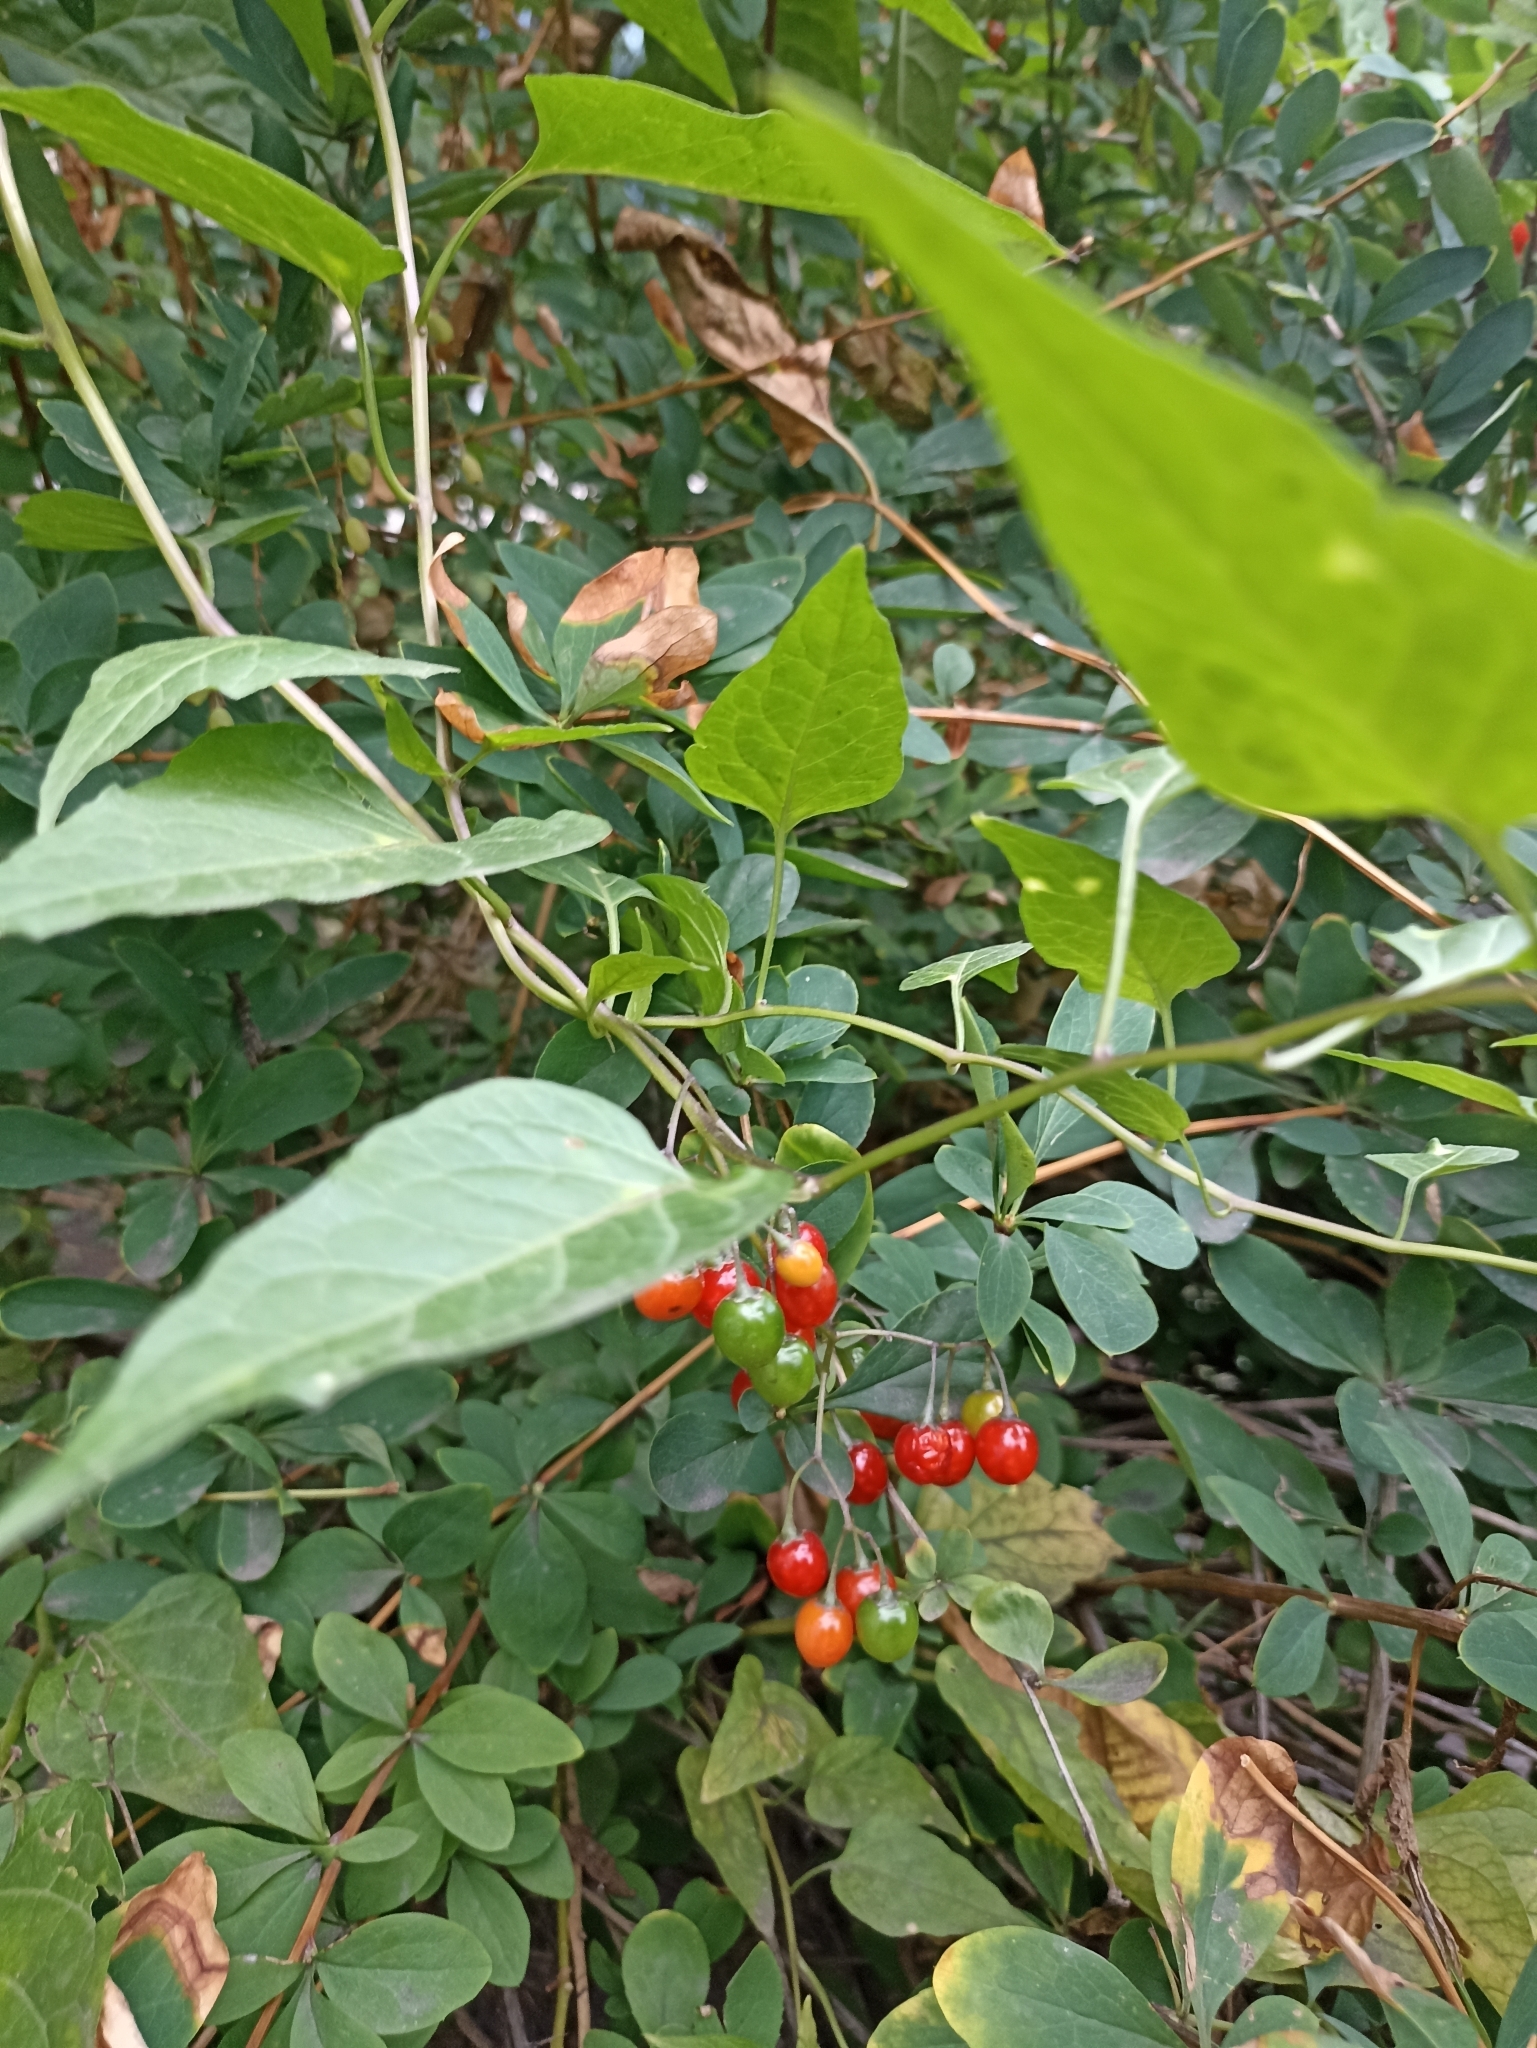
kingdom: Plantae
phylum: Tracheophyta
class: Magnoliopsida
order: Solanales
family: Solanaceae
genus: Solanum
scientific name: Solanum dulcamara
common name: Climbing nightshade
